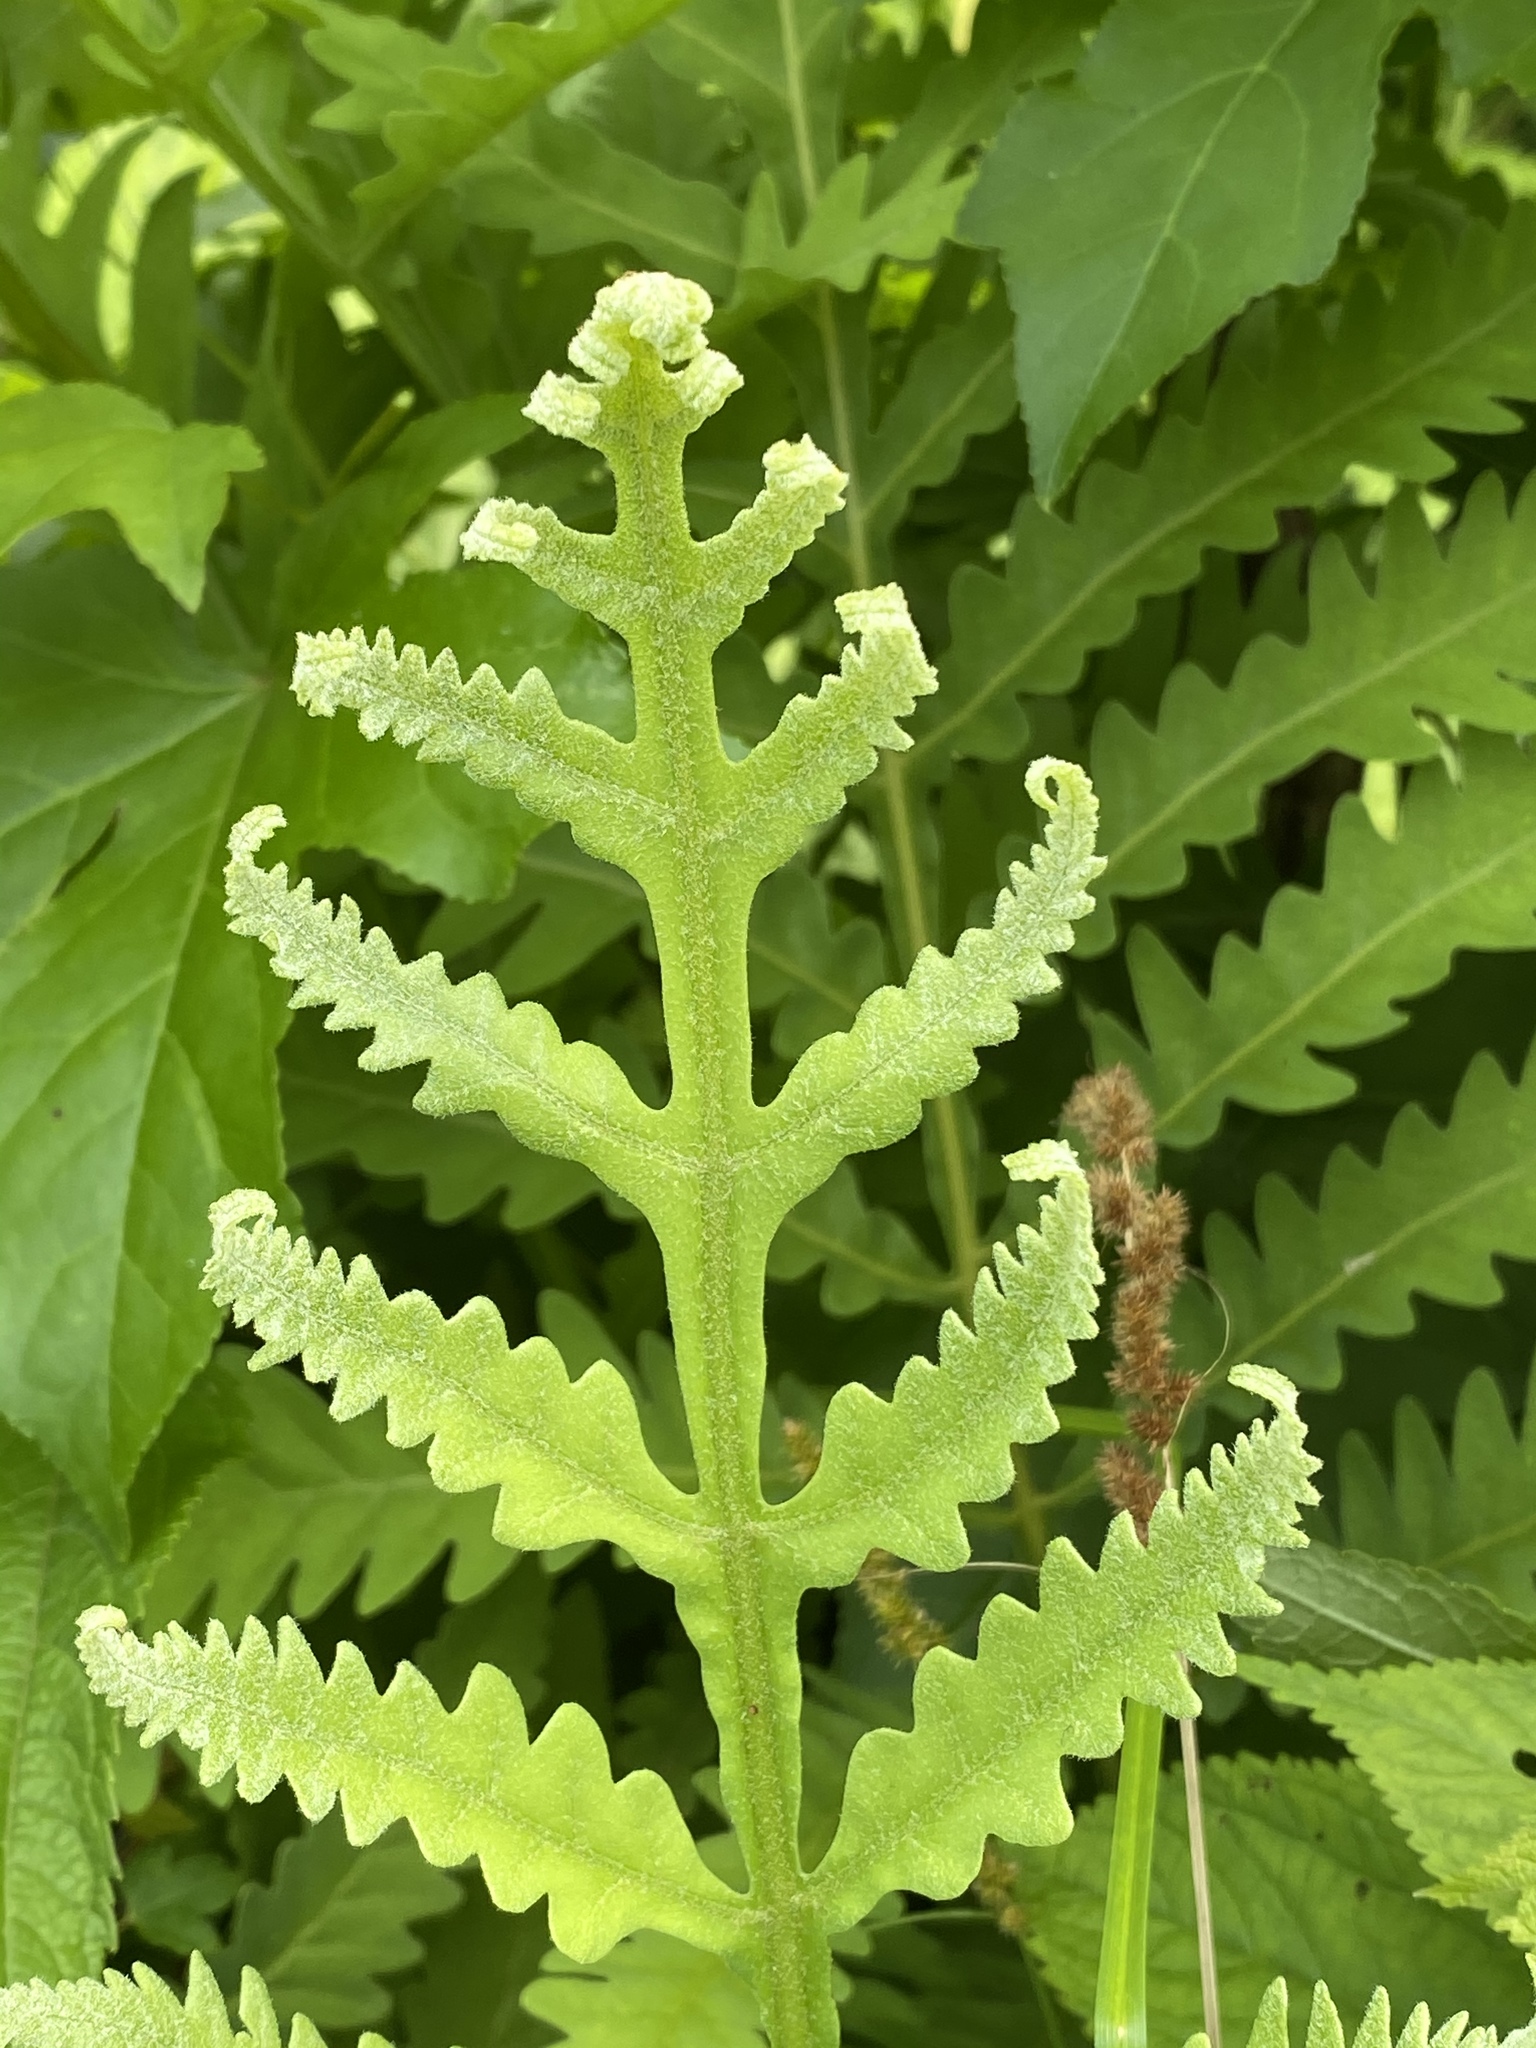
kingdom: Plantae
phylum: Tracheophyta
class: Polypodiopsida
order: Polypodiales
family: Onocleaceae
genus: Onoclea
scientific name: Onoclea sensibilis
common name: Sensitive fern
